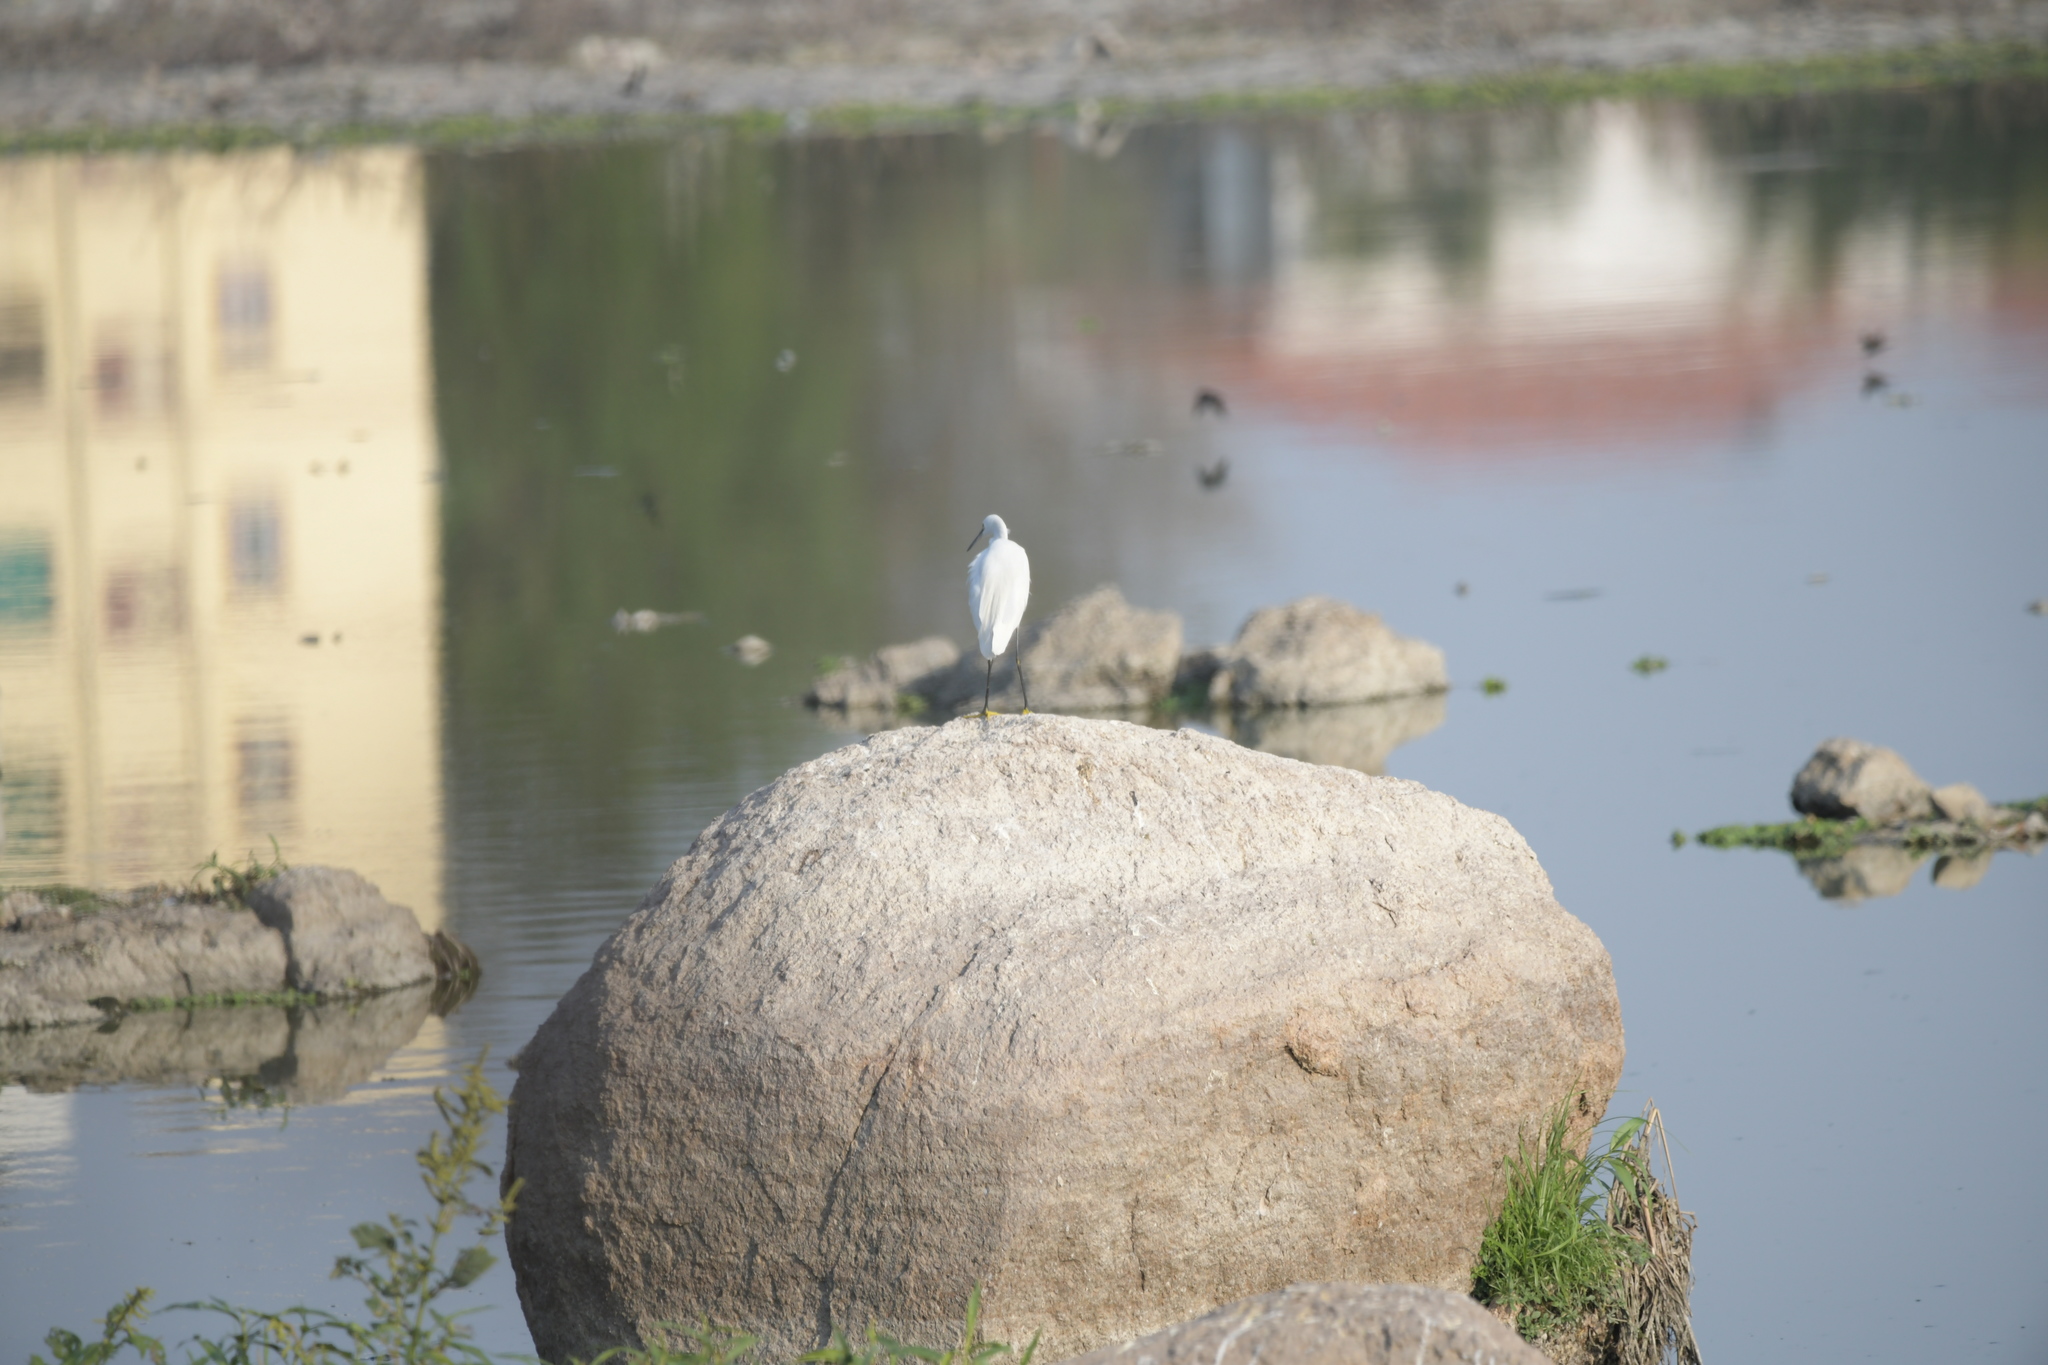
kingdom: Animalia
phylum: Chordata
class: Aves
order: Pelecaniformes
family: Ardeidae
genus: Egretta
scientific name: Egretta garzetta
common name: Little egret
